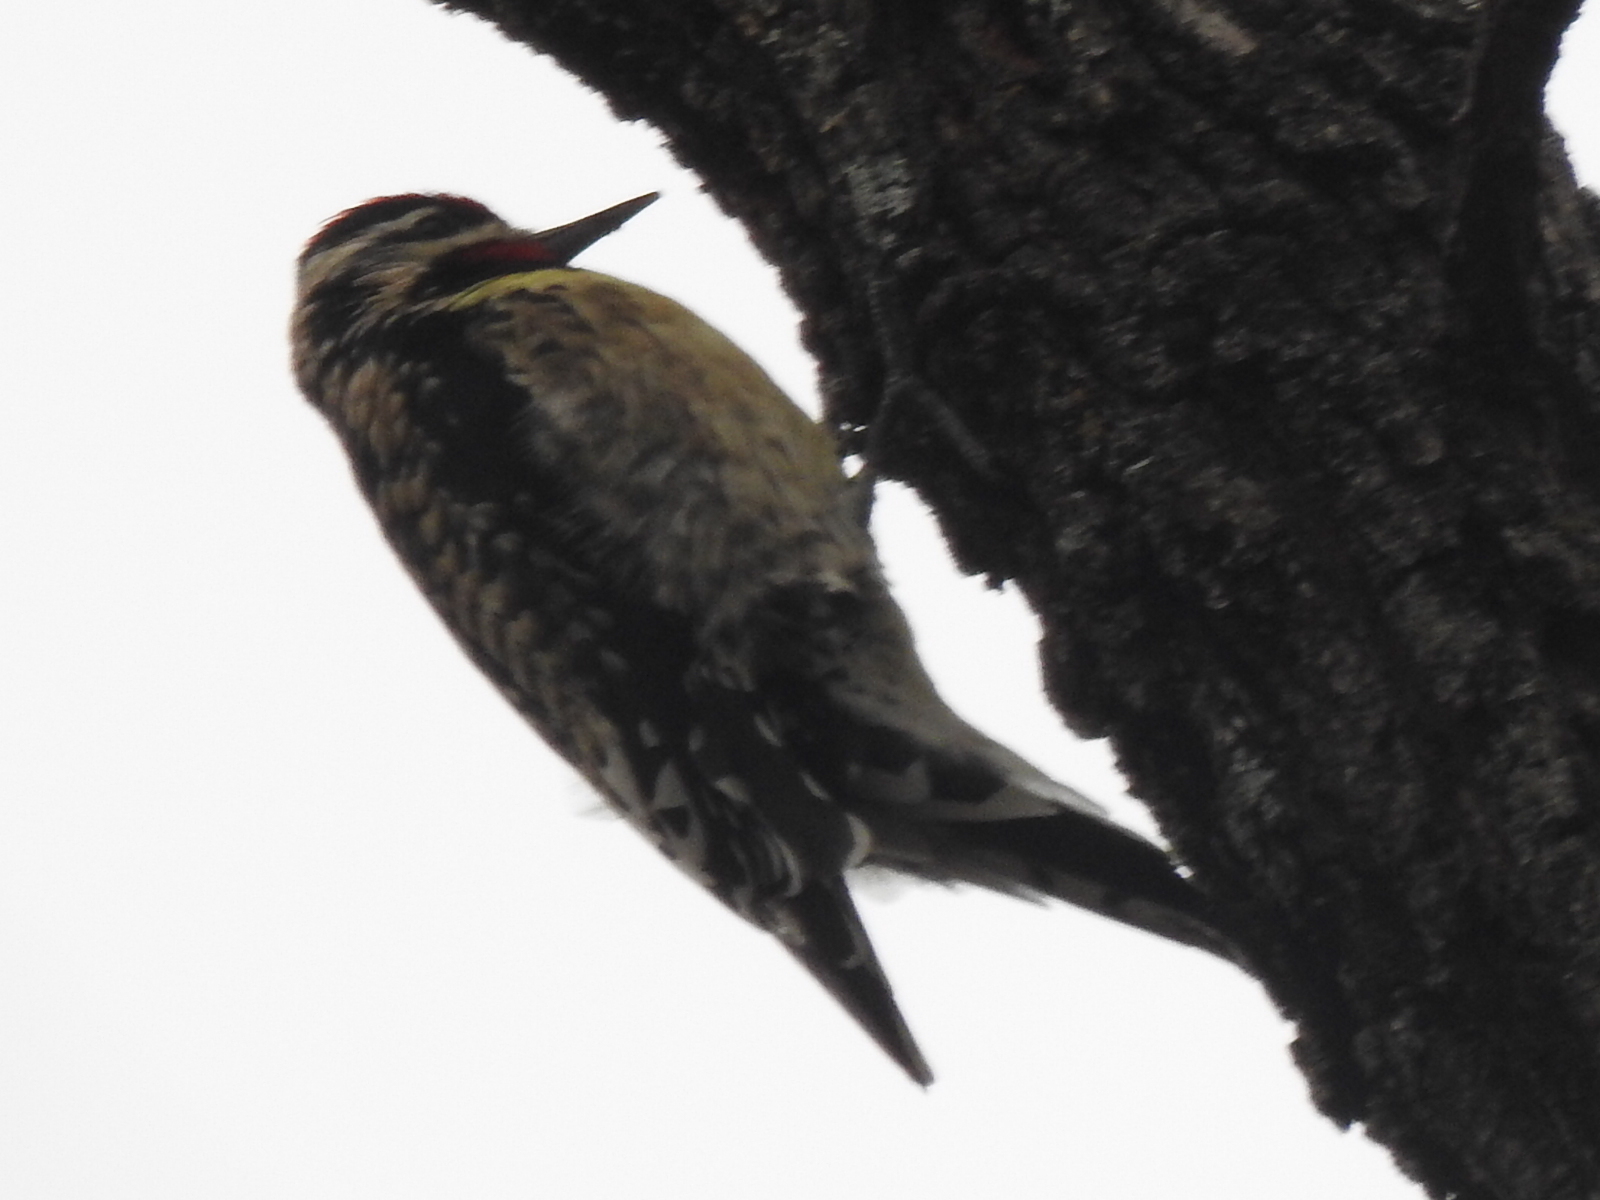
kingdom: Animalia
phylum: Chordata
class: Aves
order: Piciformes
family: Picidae
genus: Sphyrapicus
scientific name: Sphyrapicus varius
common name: Yellow-bellied sapsucker
